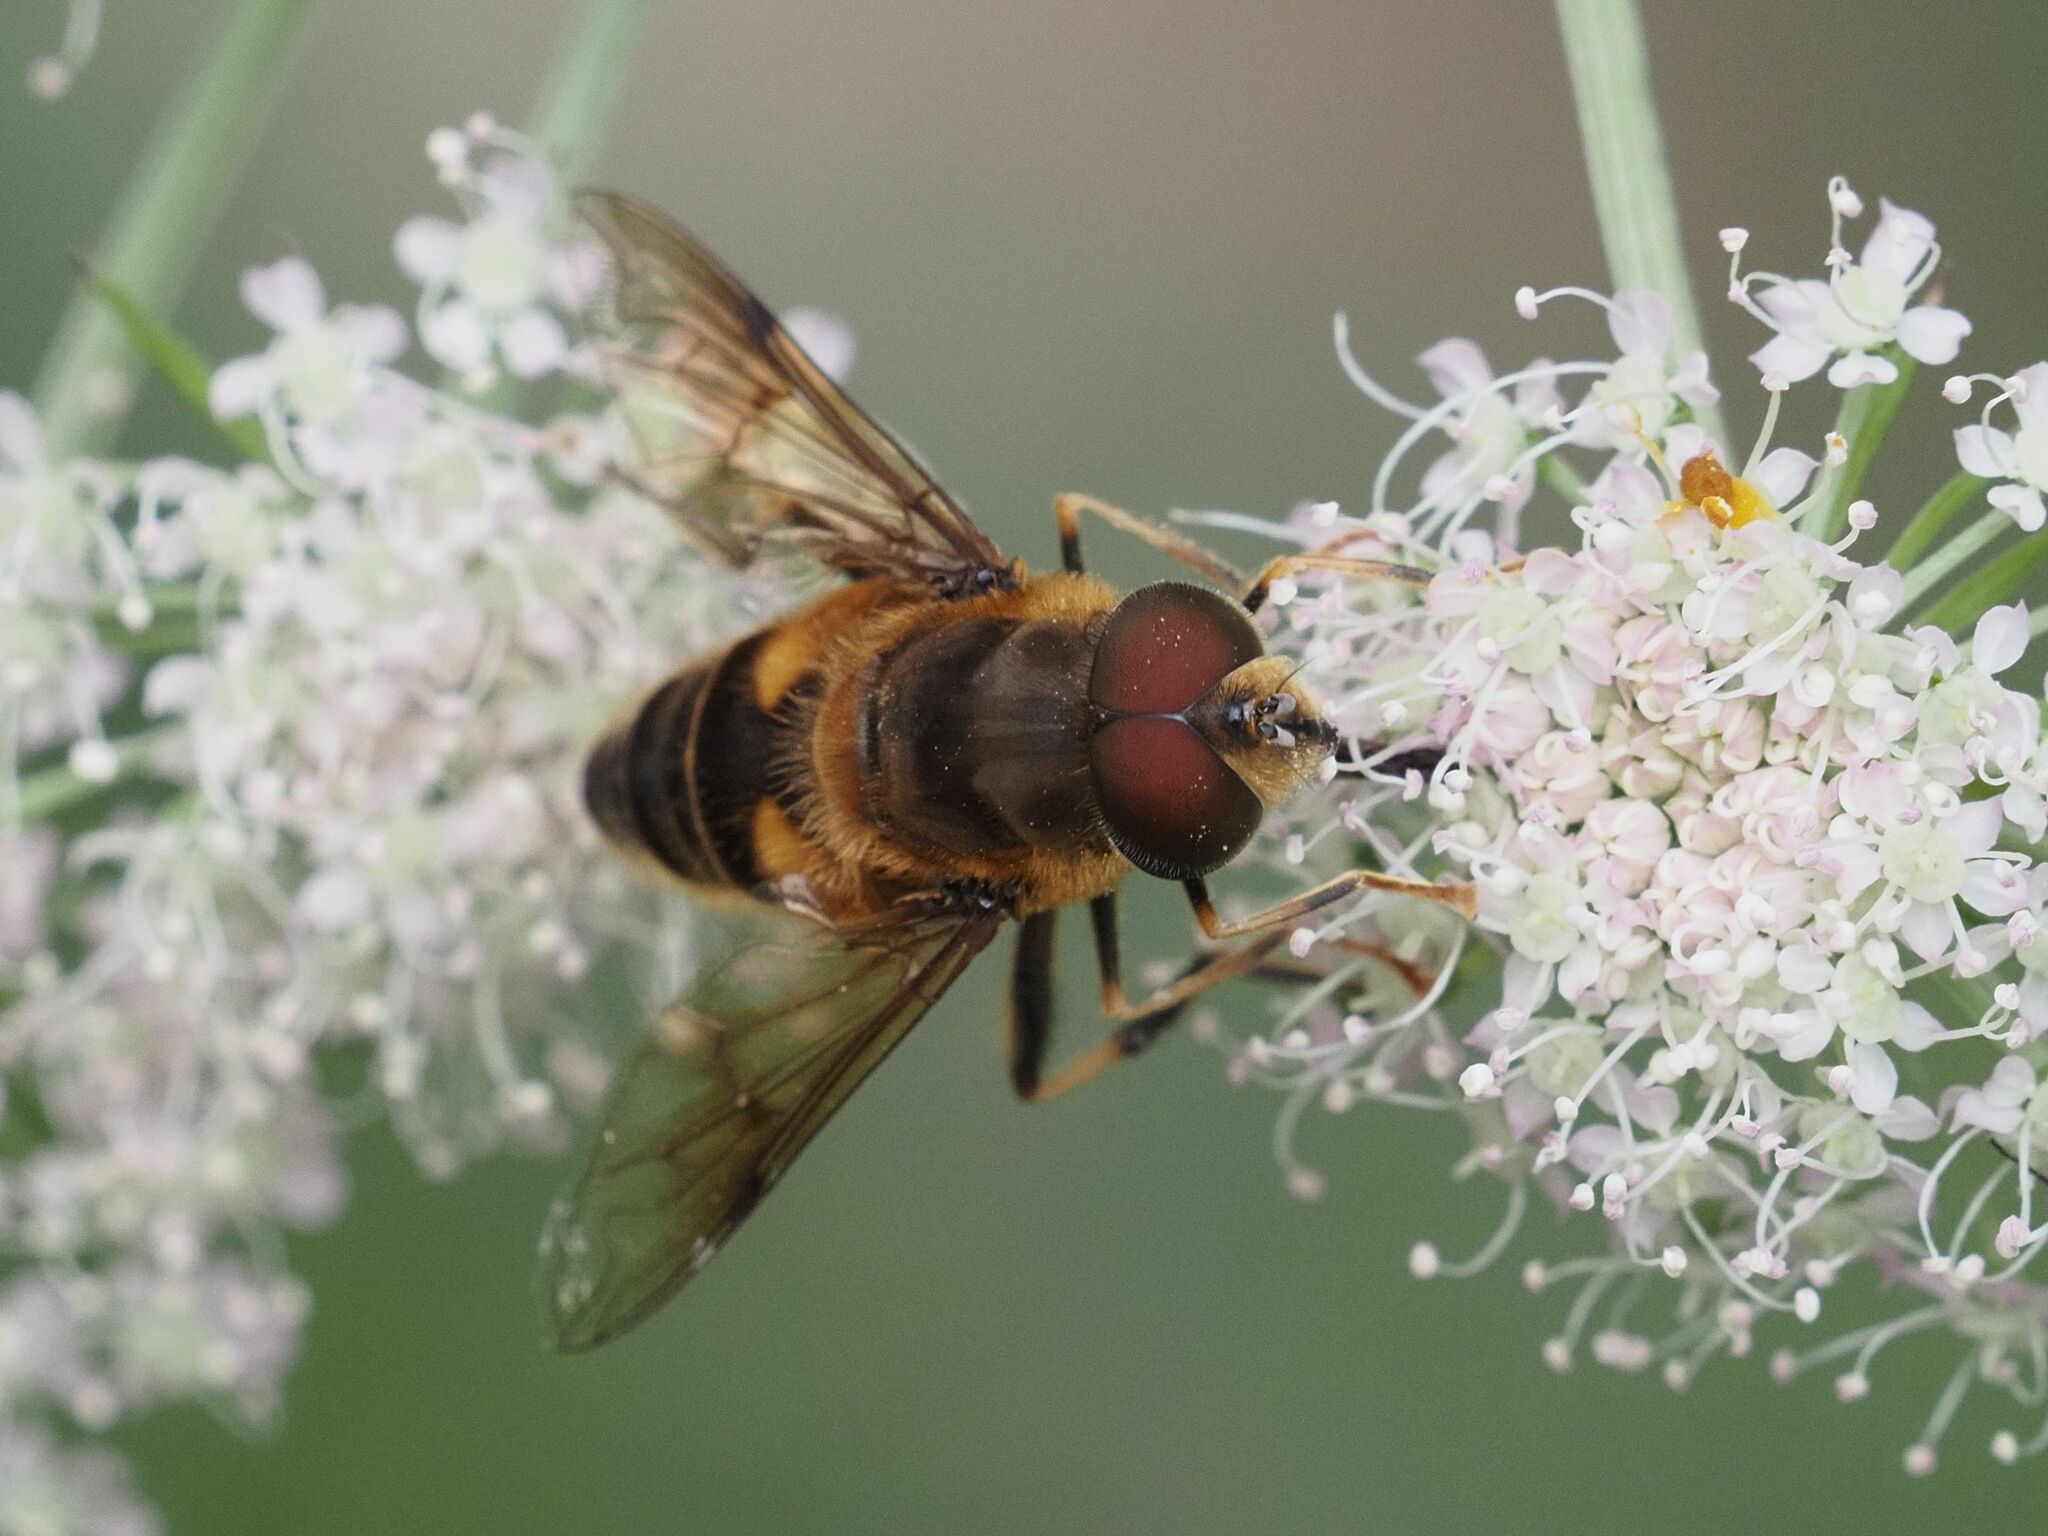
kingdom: Animalia
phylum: Arthropoda
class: Insecta
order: Diptera
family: Syrphidae
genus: Eristalis
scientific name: Eristalis pertinax
